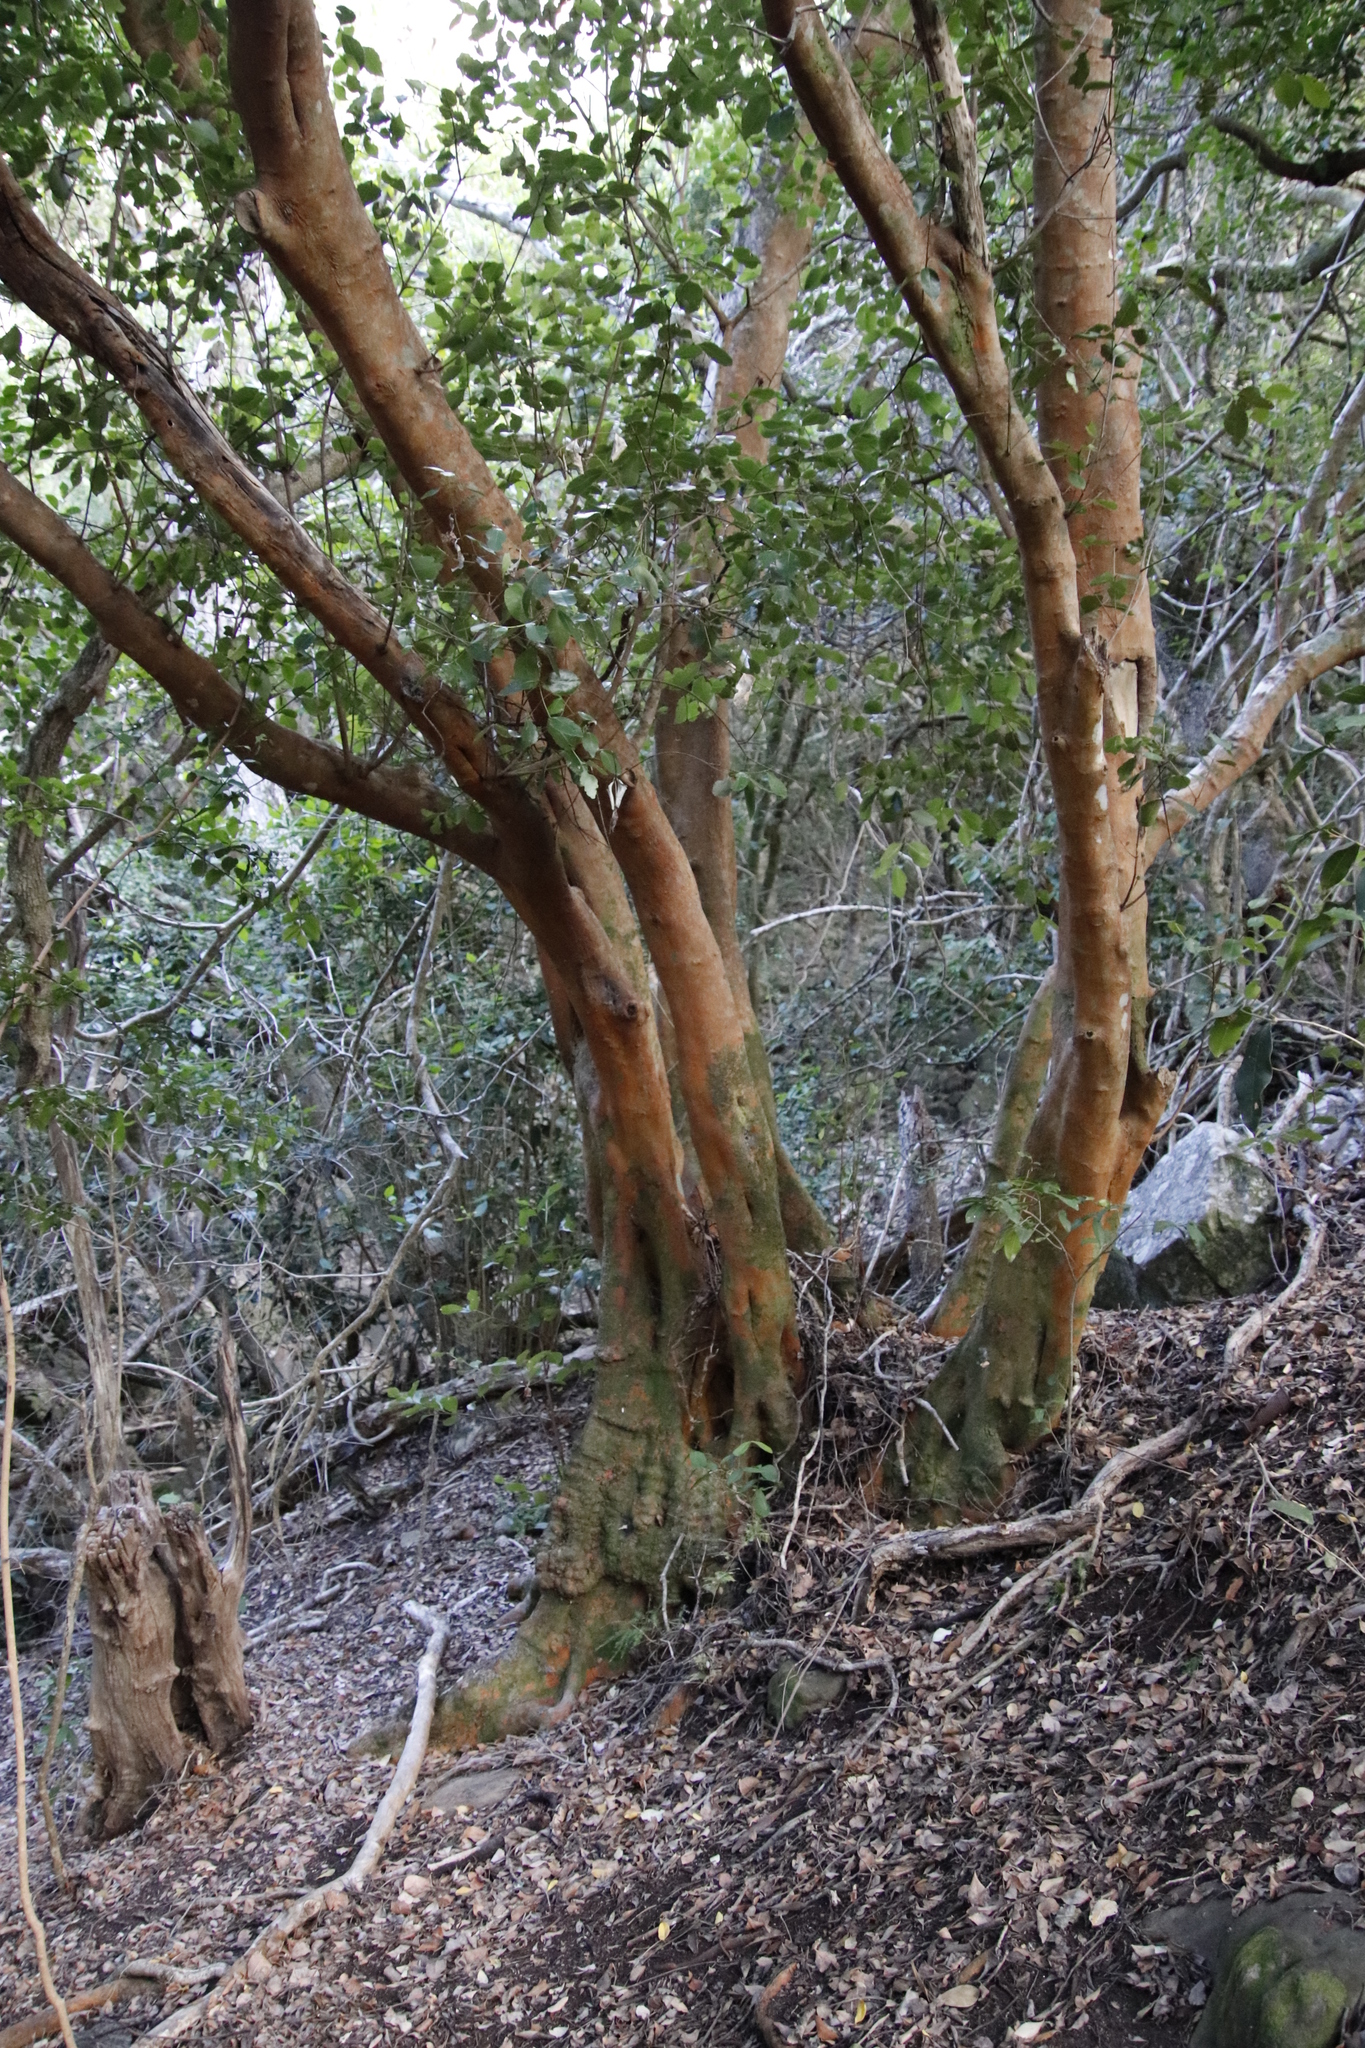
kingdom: Plantae
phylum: Tracheophyta
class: Magnoliopsida
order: Celastrales
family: Celastraceae
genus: Cassine
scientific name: Cassine peragua
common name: Cape saffron
